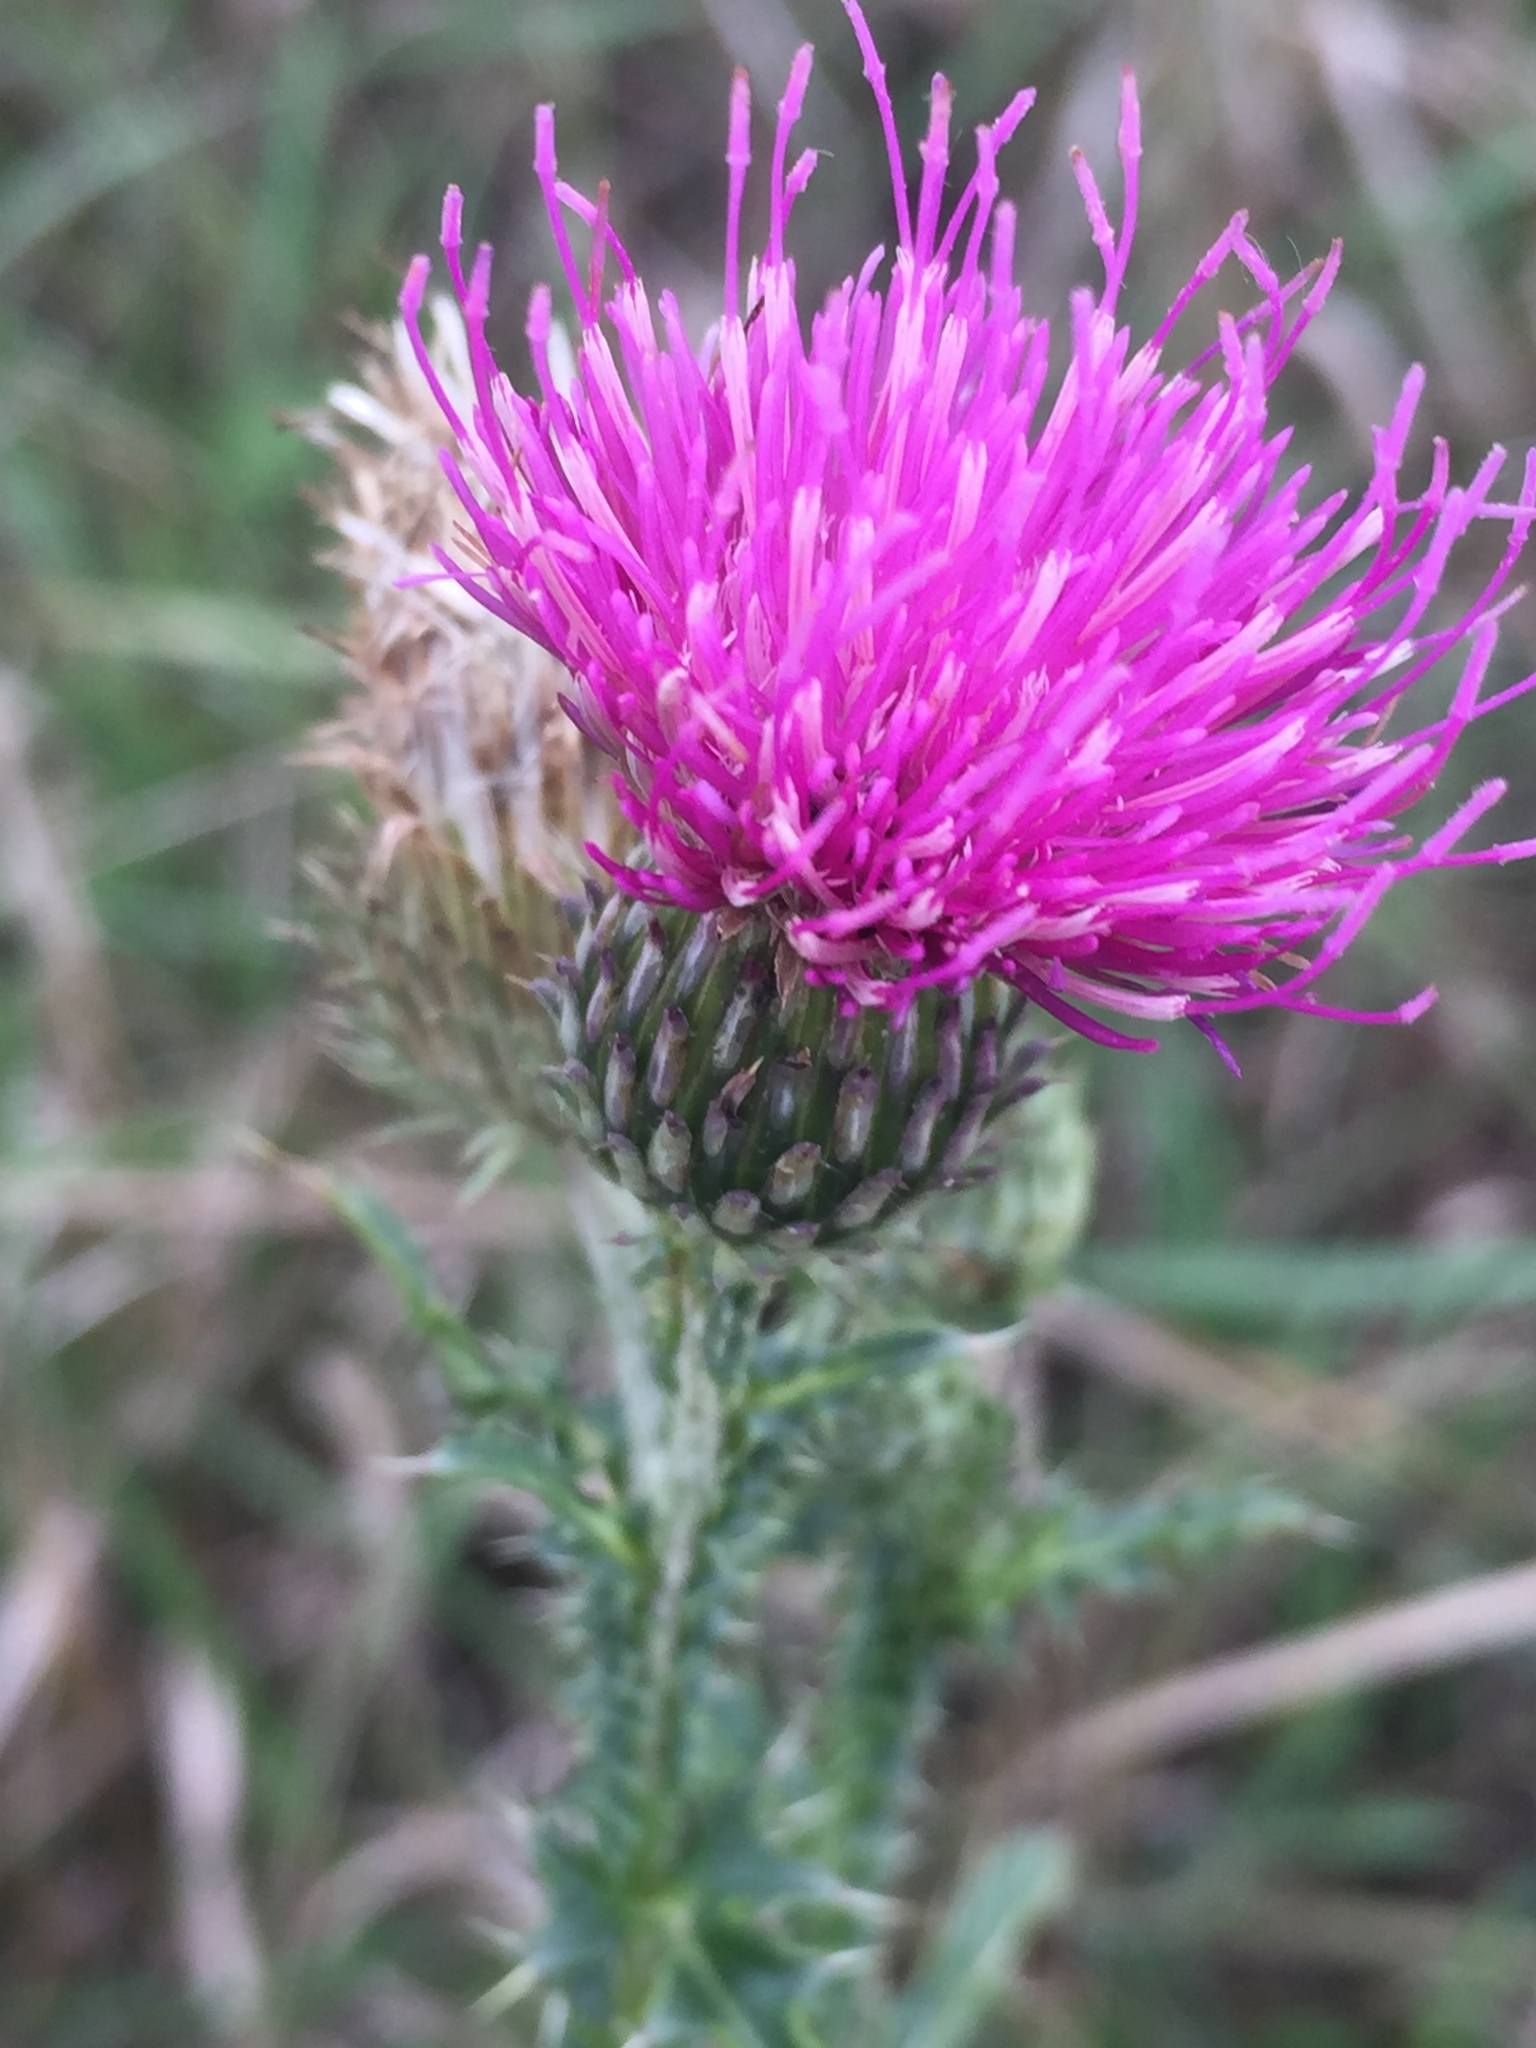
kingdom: Plantae
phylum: Tracheophyta
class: Magnoliopsida
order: Asterales
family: Asteraceae
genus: Carduus
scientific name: Carduus acanthoides
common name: Plumeless thistle
